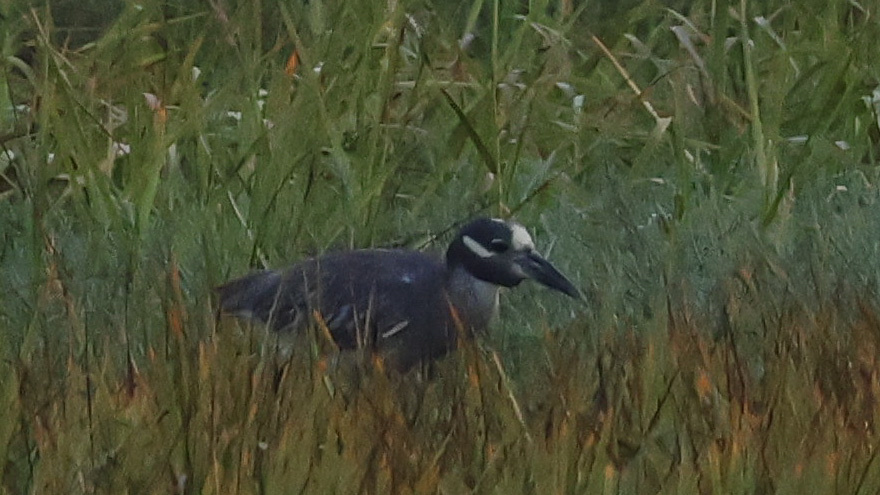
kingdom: Animalia
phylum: Chordata
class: Aves
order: Pelecaniformes
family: Ardeidae
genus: Nyctanassa
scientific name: Nyctanassa violacea
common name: Yellow-crowned night heron
